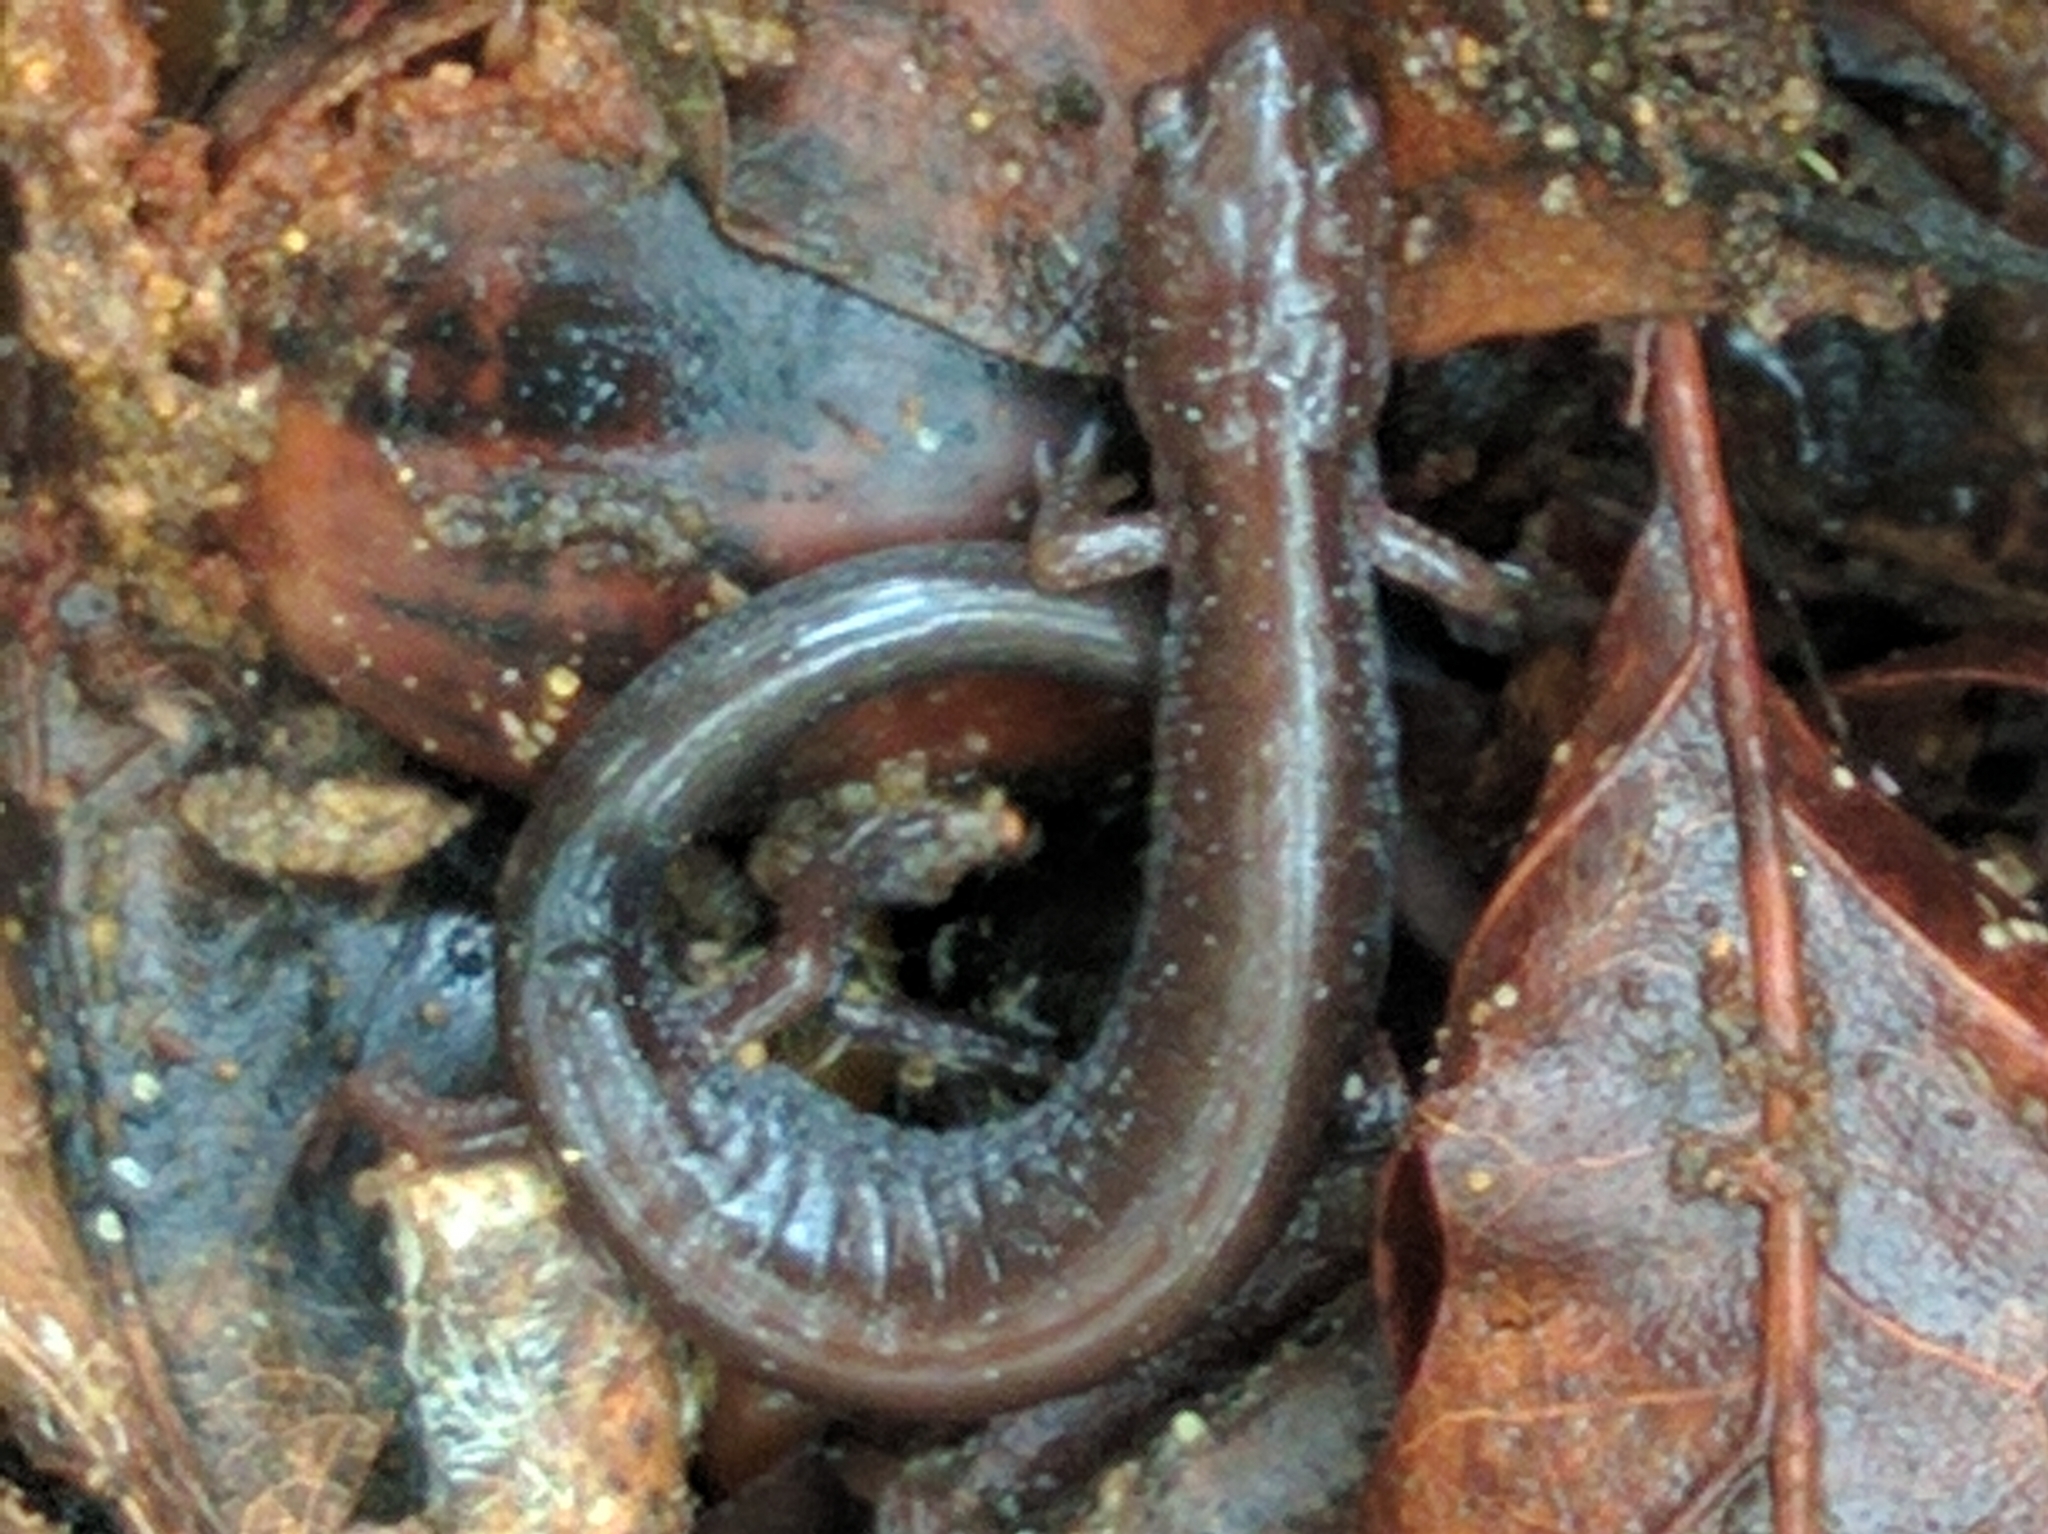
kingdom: Animalia
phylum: Chordata
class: Amphibia
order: Caudata
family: Plethodontidae
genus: Plethodon
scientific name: Plethodon cinereus
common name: Redback salamander
